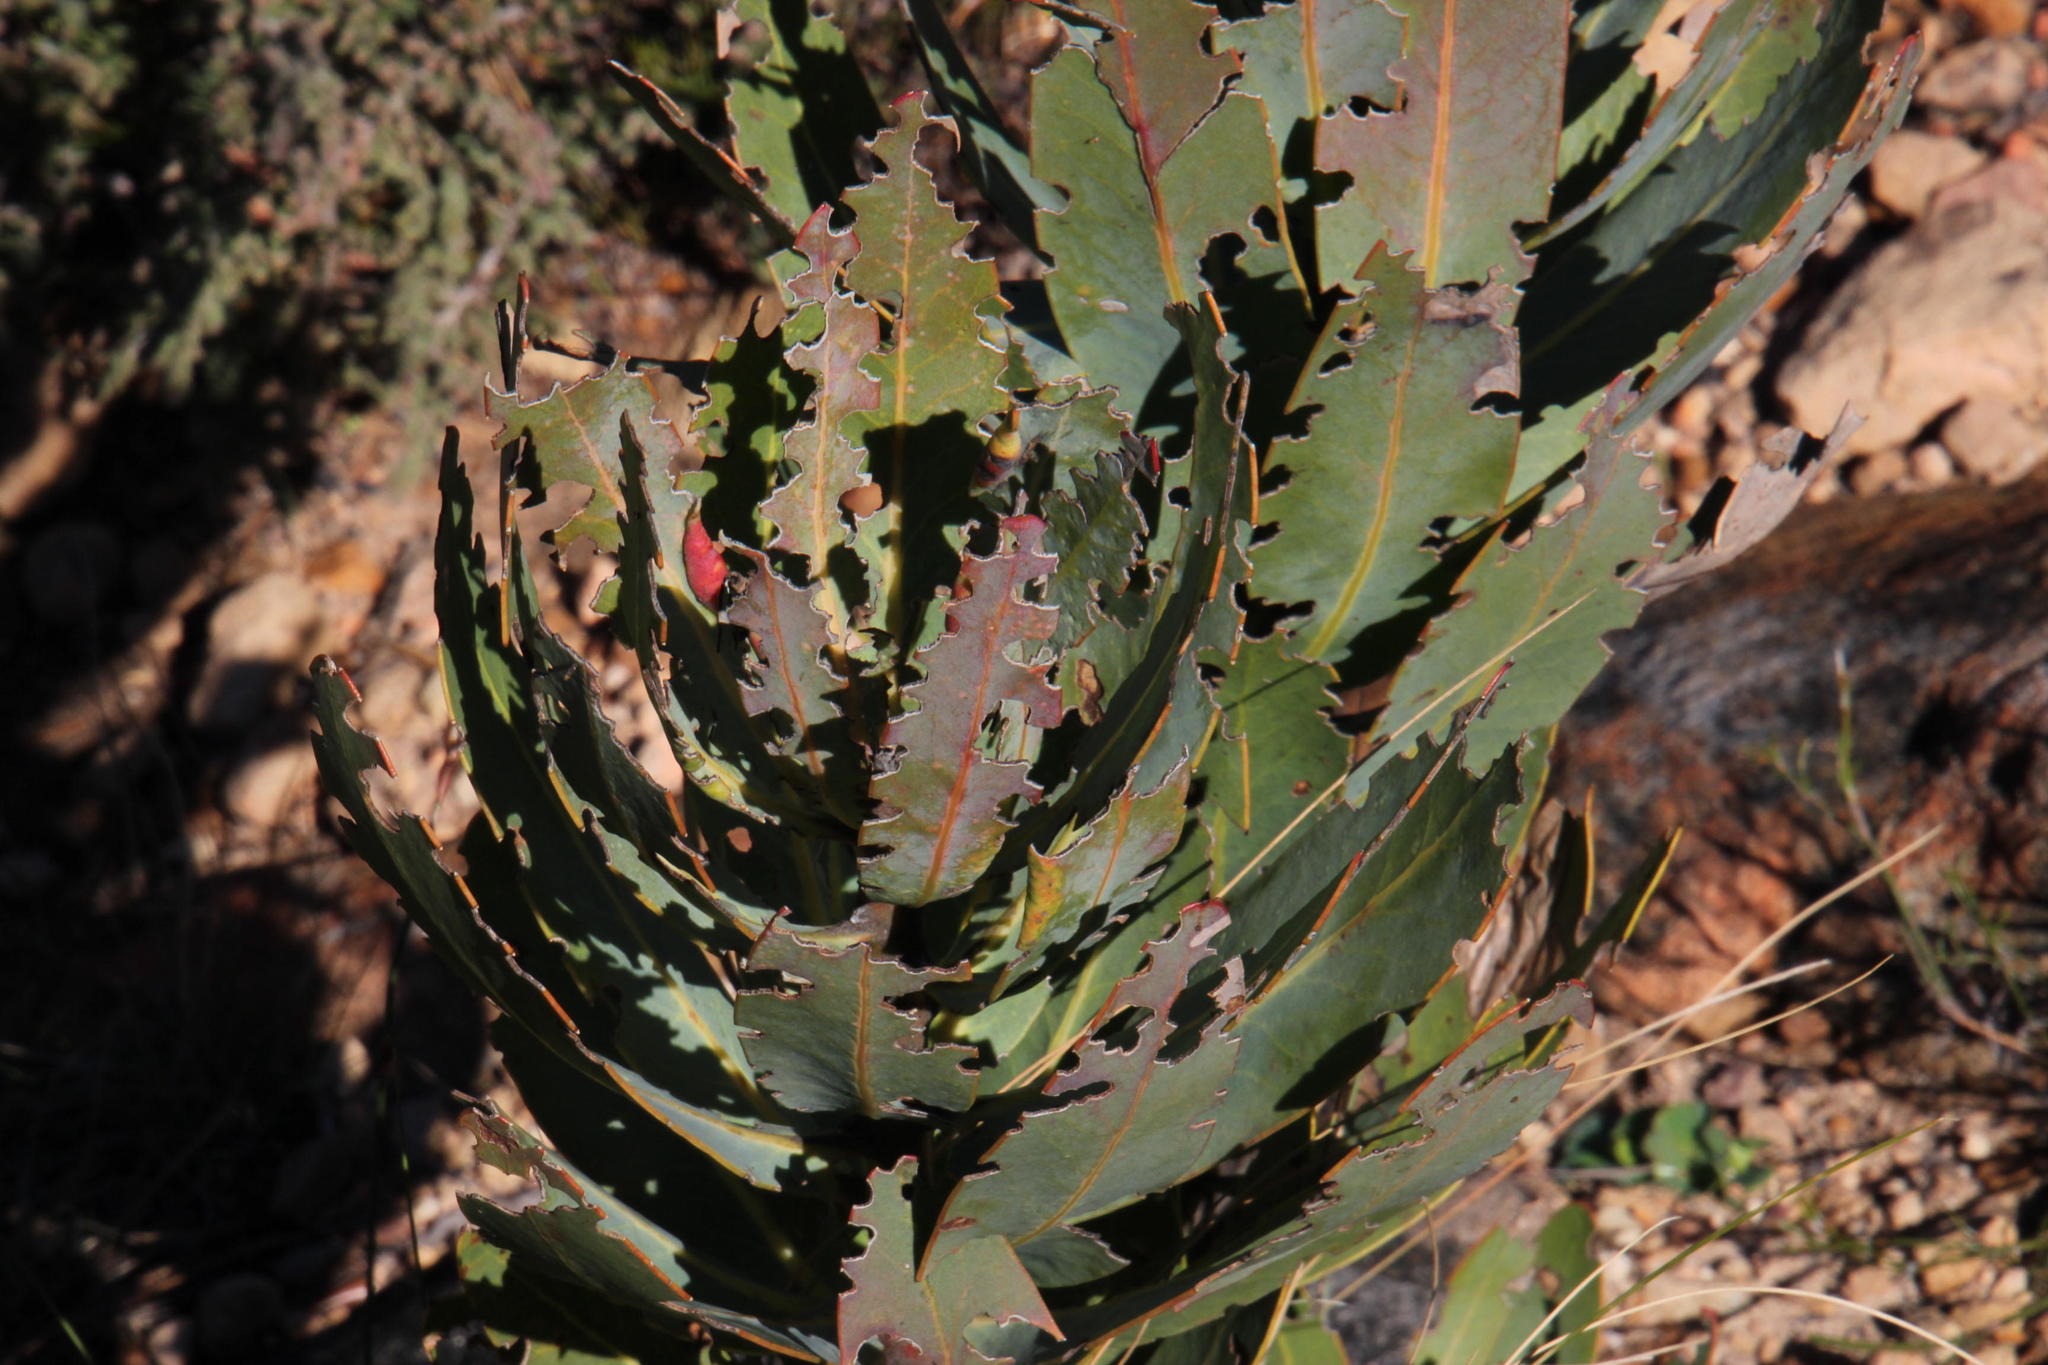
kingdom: Plantae
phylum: Tracheophyta
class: Magnoliopsida
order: Proteales
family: Proteaceae
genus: Protea
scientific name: Protea laurifolia
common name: Grey-leaf sugarbsh
